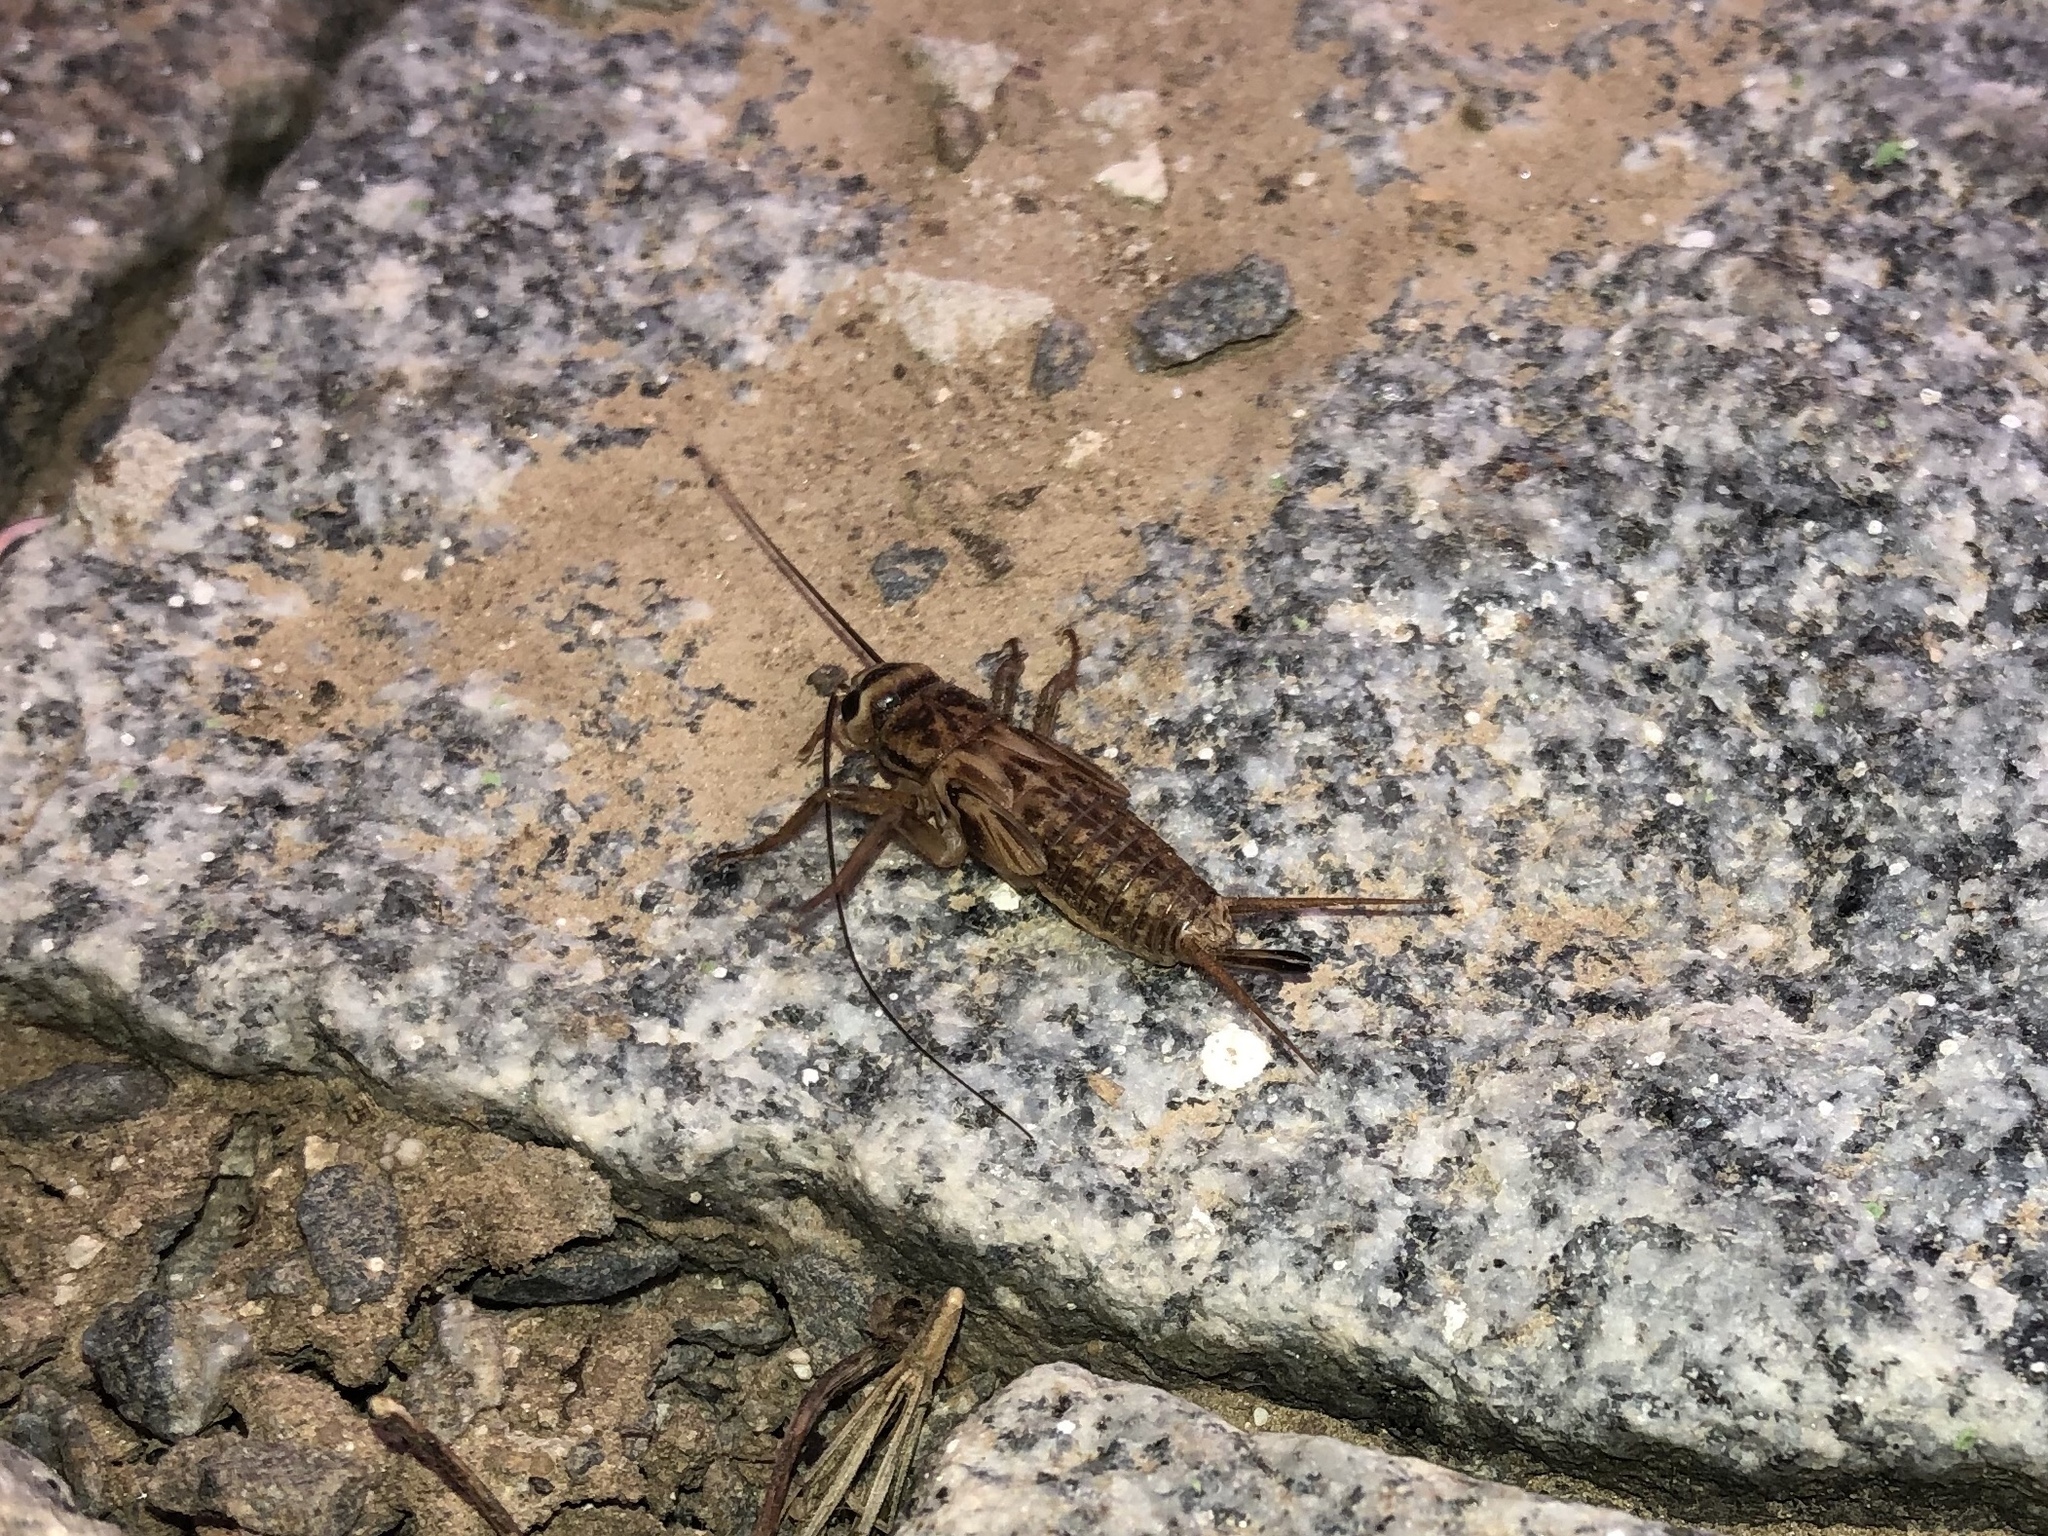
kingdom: Animalia
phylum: Arthropoda
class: Insecta
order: Orthoptera
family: Gryllidae
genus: Acheta
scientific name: Acheta domesticus
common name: House cricket
